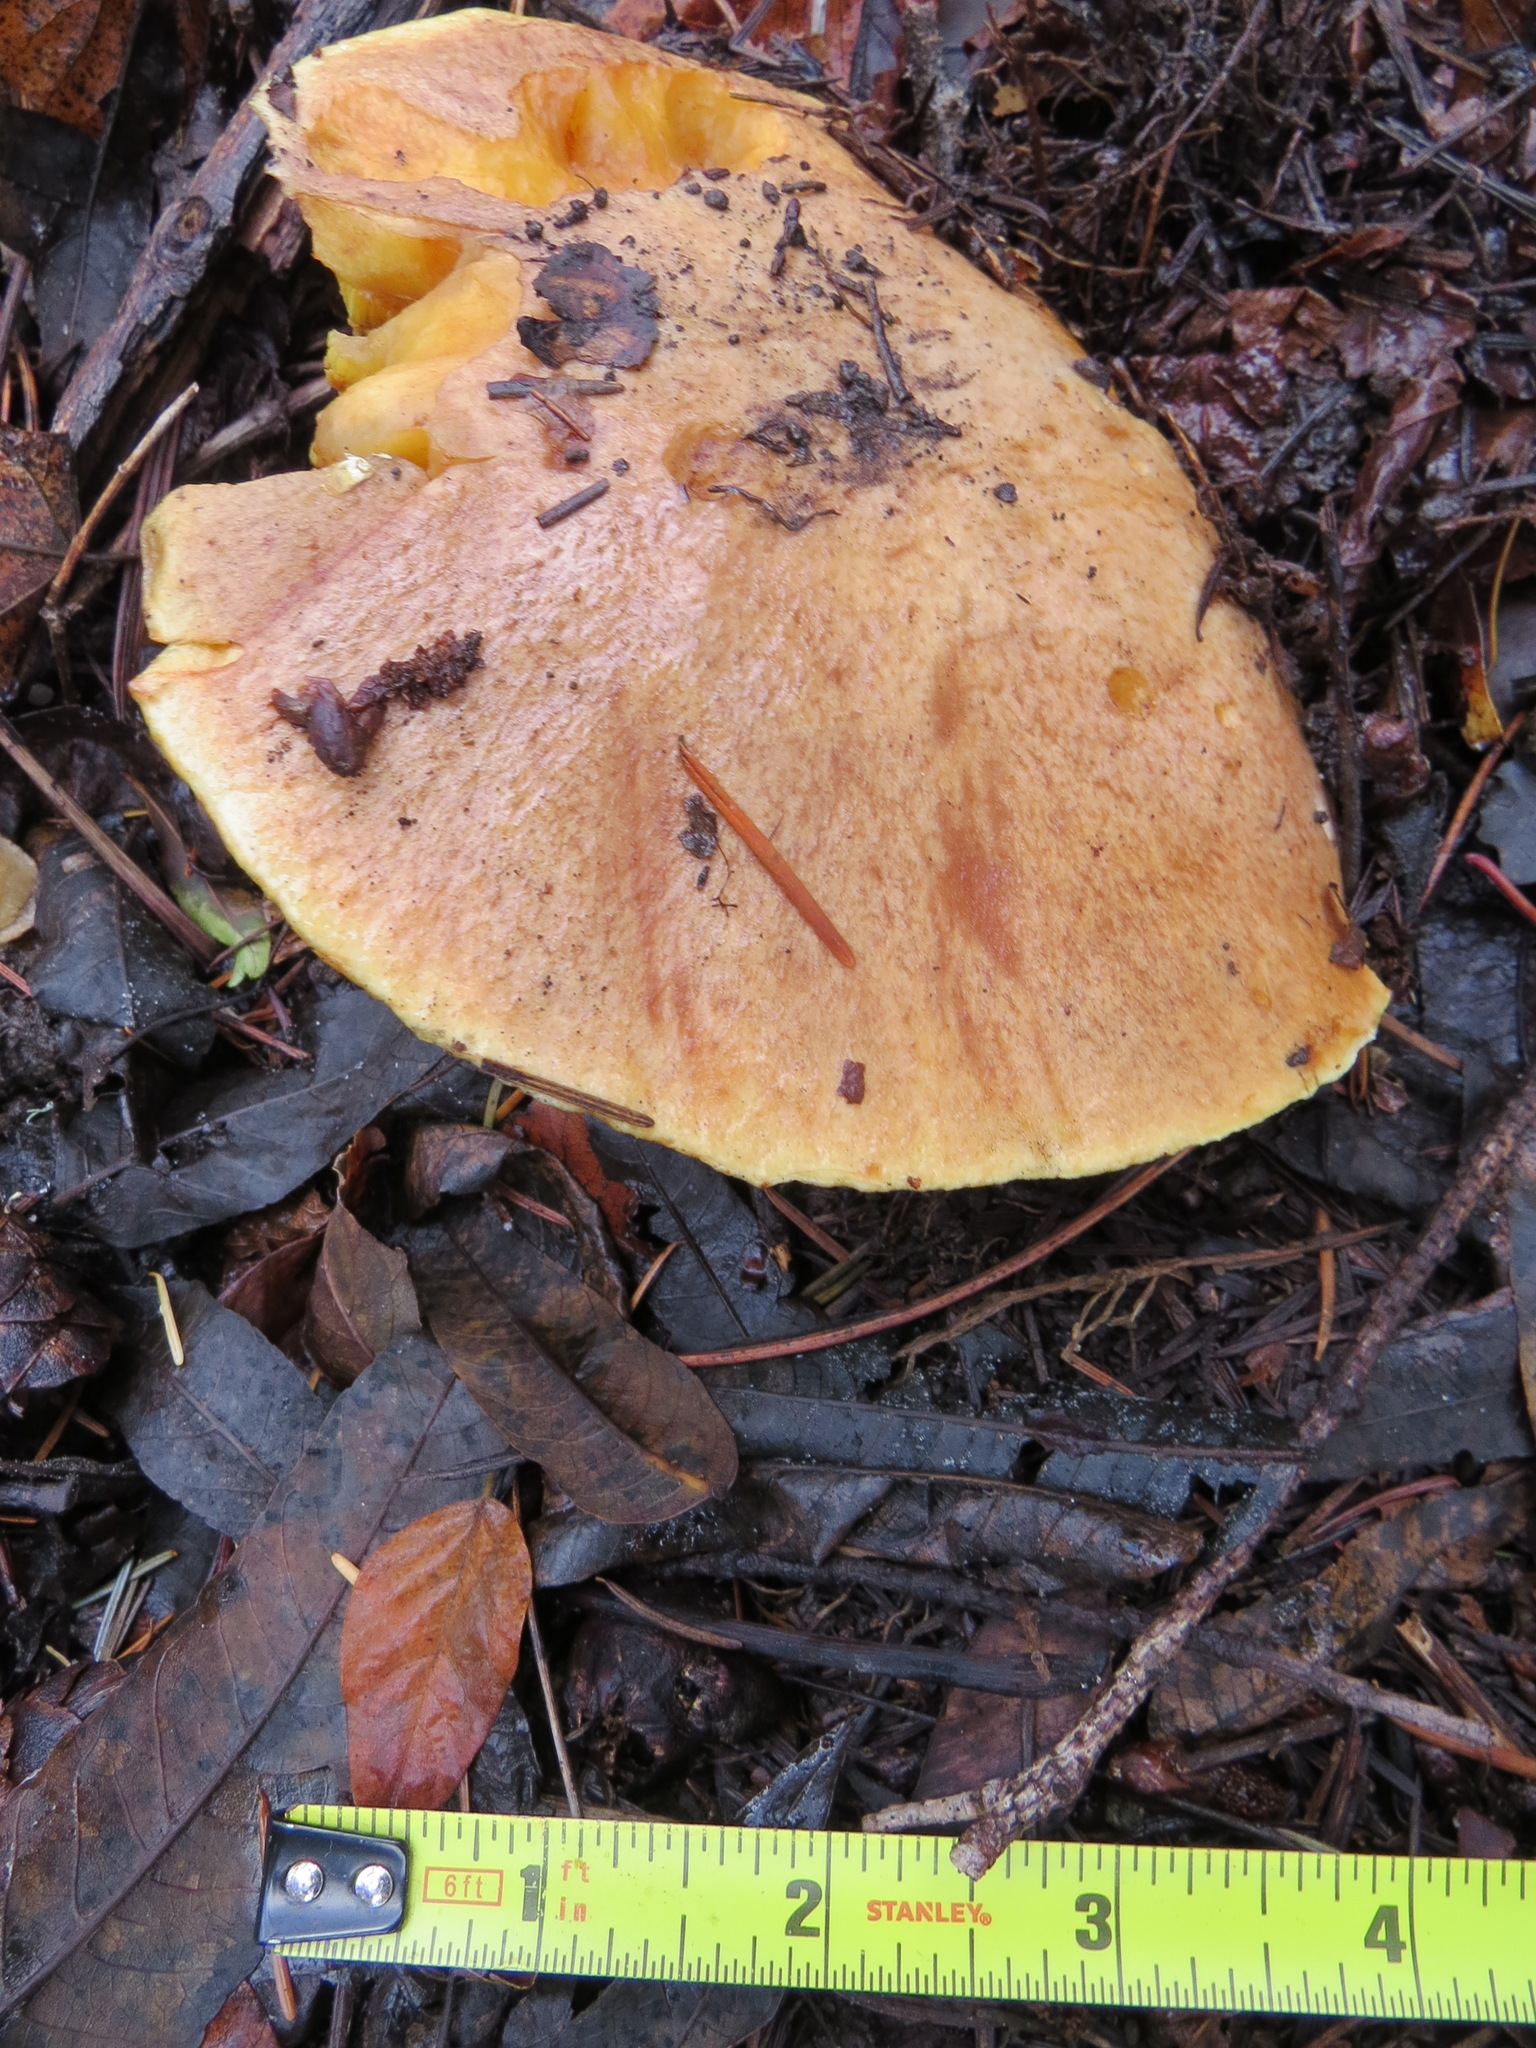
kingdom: Fungi
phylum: Basidiomycota
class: Agaricomycetes
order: Boletales
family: Suillaceae
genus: Suillus
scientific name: Suillus caerulescens
